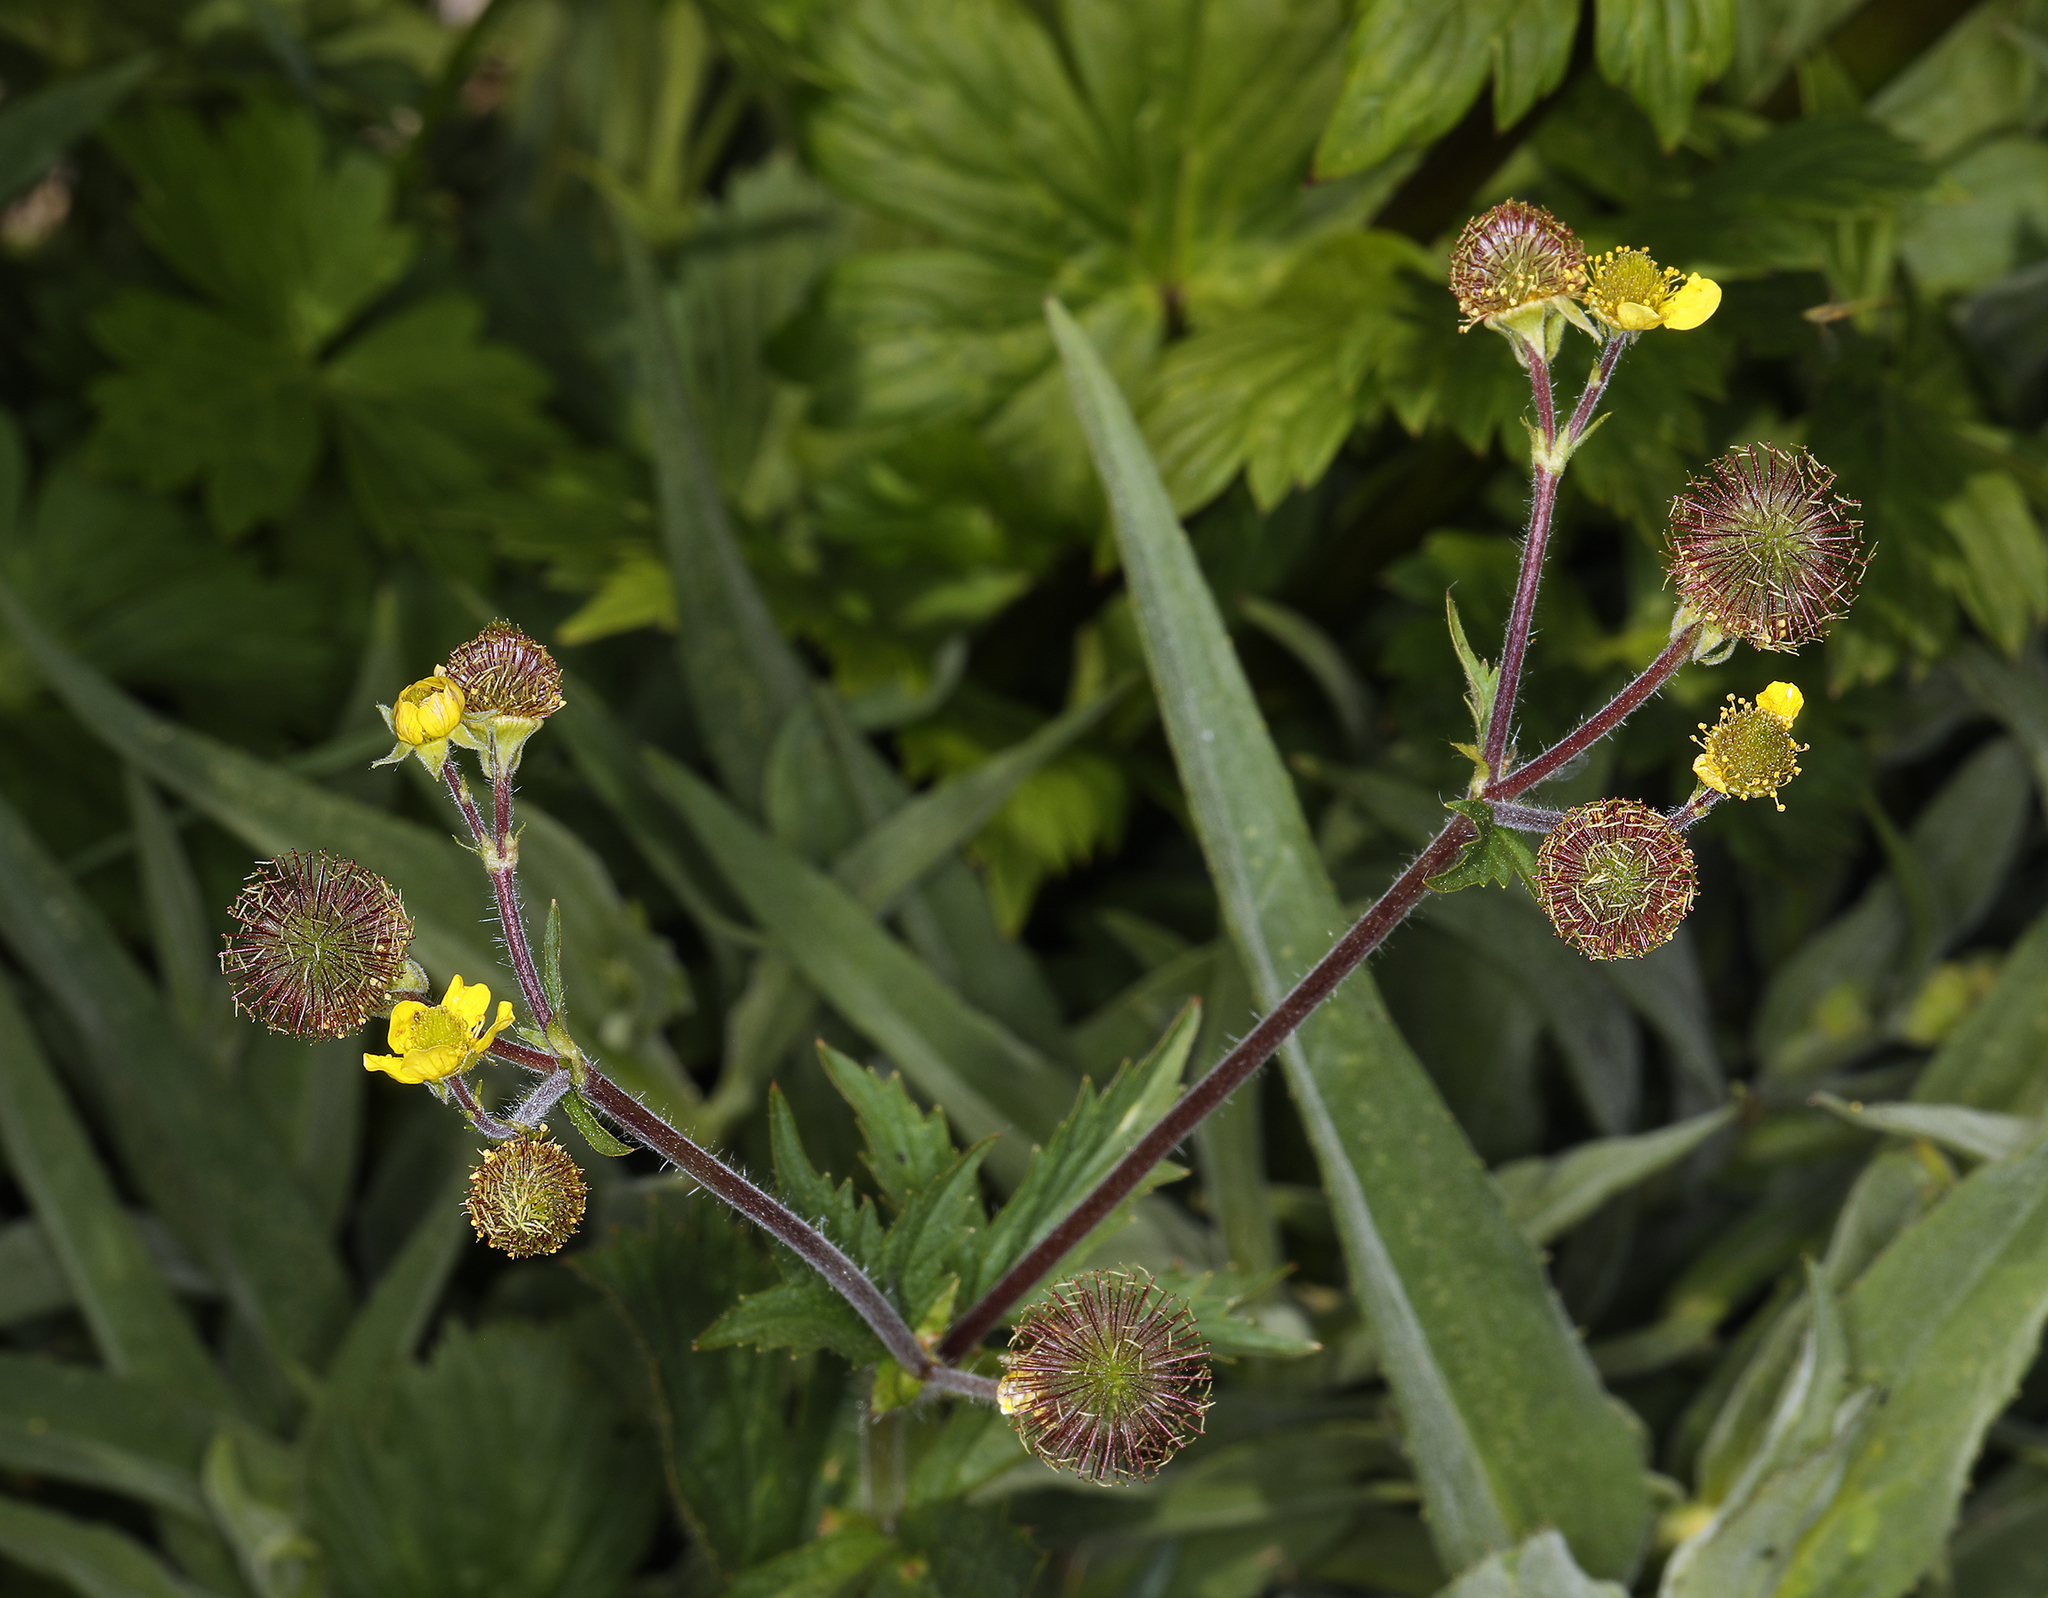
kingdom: Plantae
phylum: Tracheophyta
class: Magnoliopsida
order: Rosales
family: Rosaceae
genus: Geum
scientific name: Geum macrophyllum
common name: Large-leaved avens
